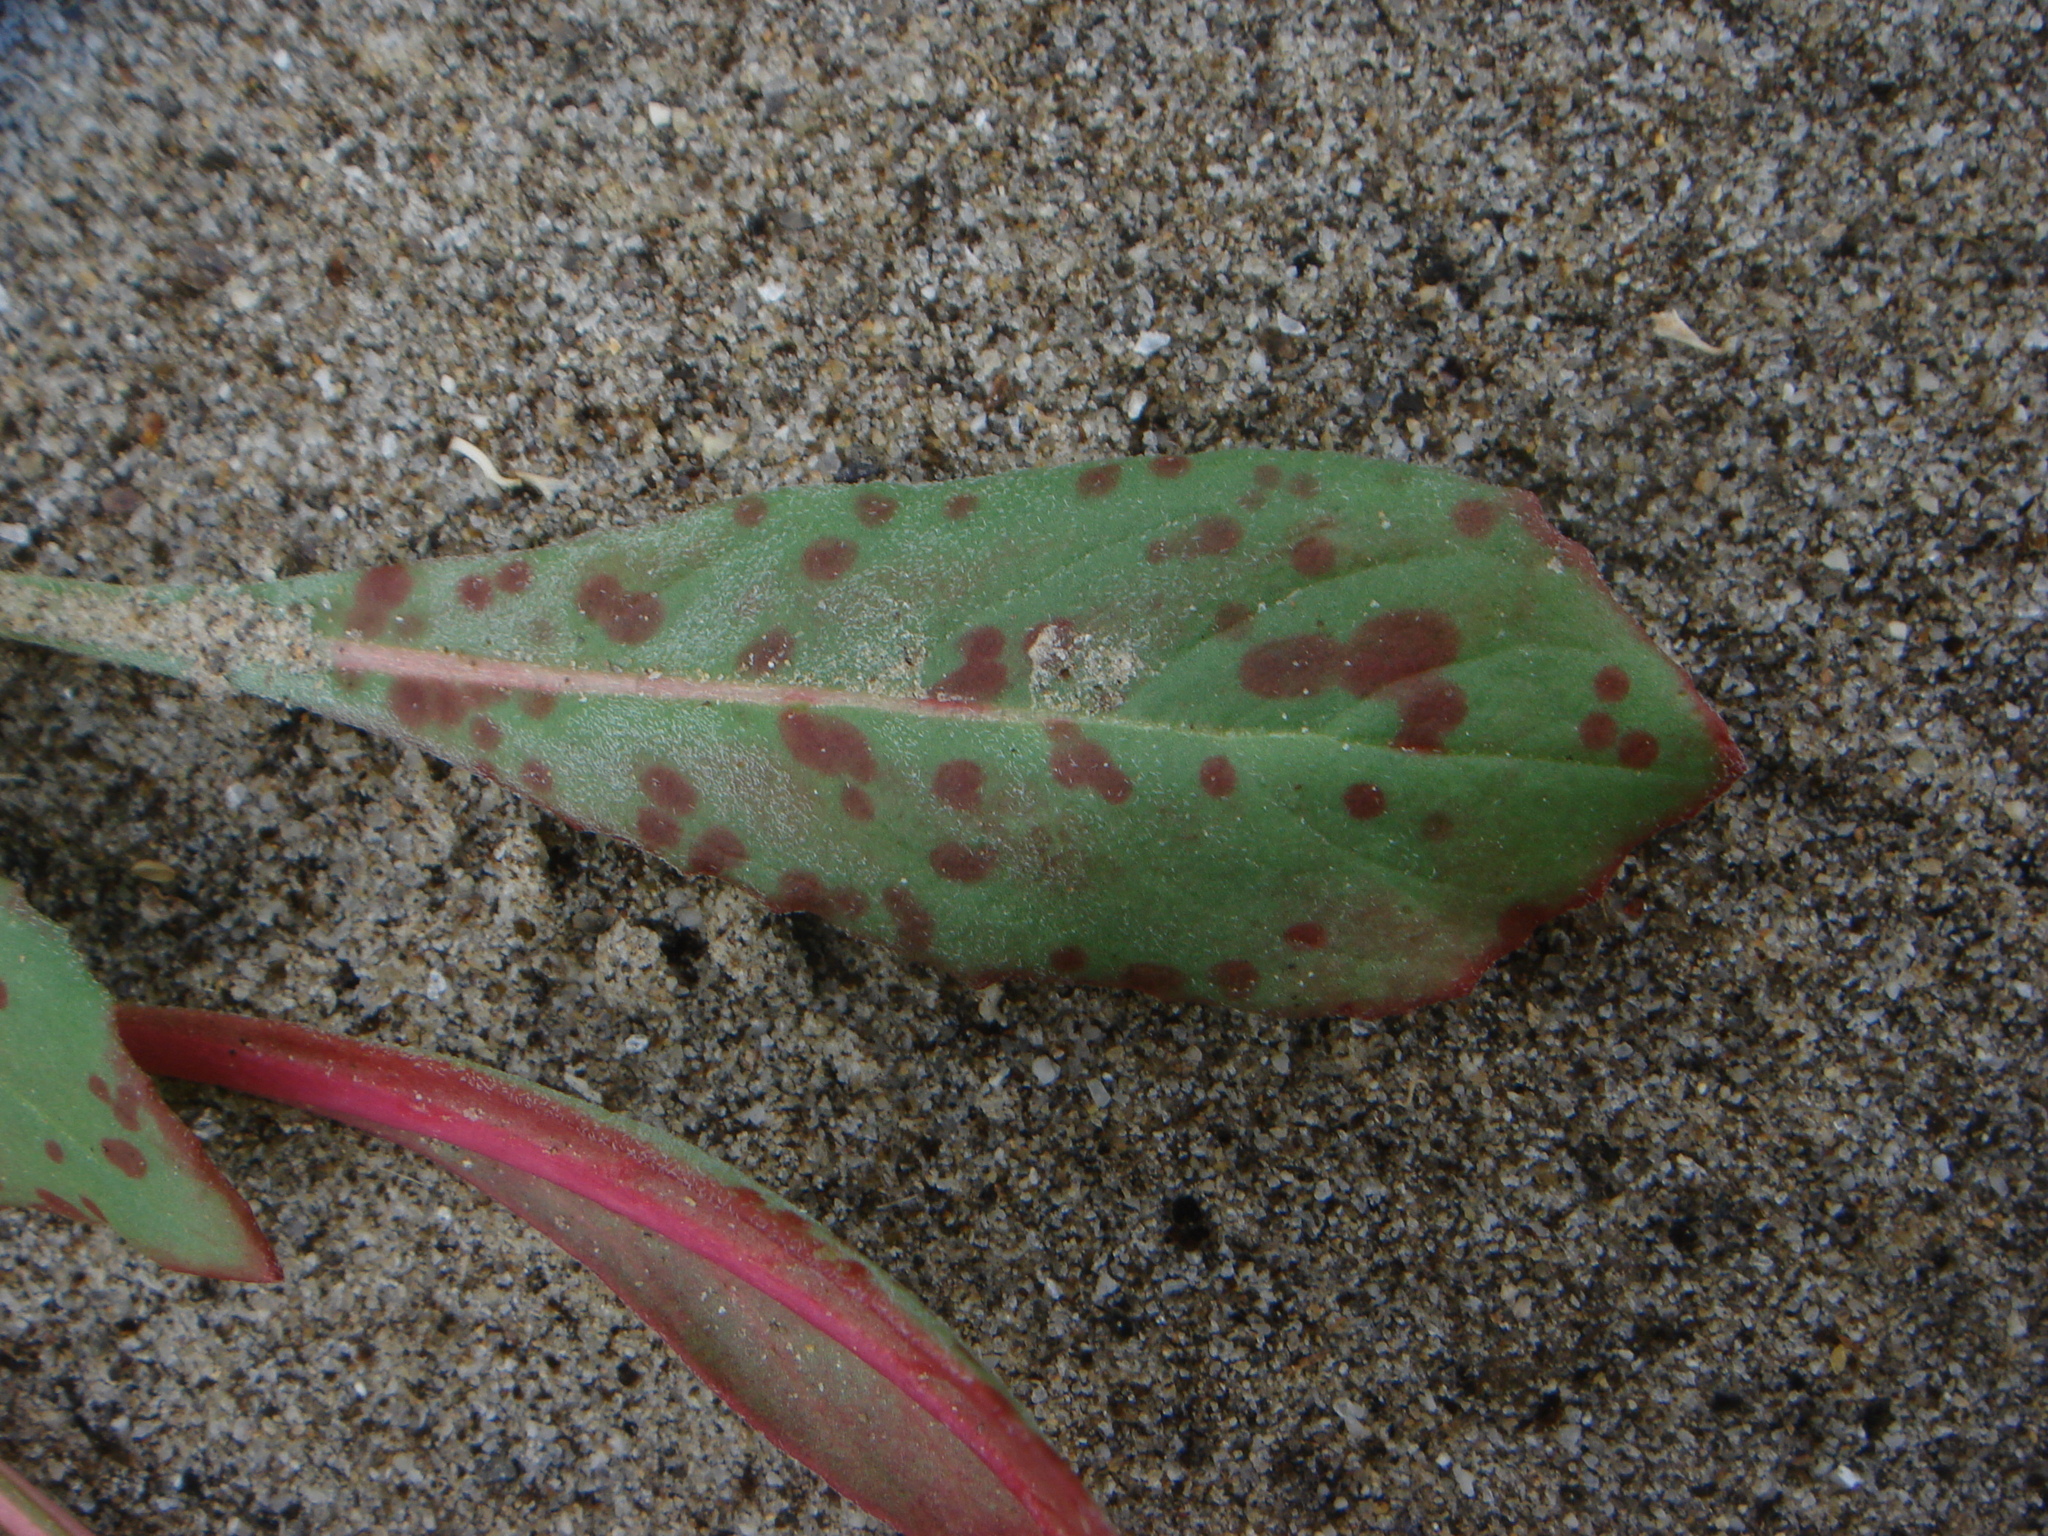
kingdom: Plantae
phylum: Tracheophyta
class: Magnoliopsida
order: Myrtales
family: Onagraceae
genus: Eremothera
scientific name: Eremothera boothii
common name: Booth's evening primrose
